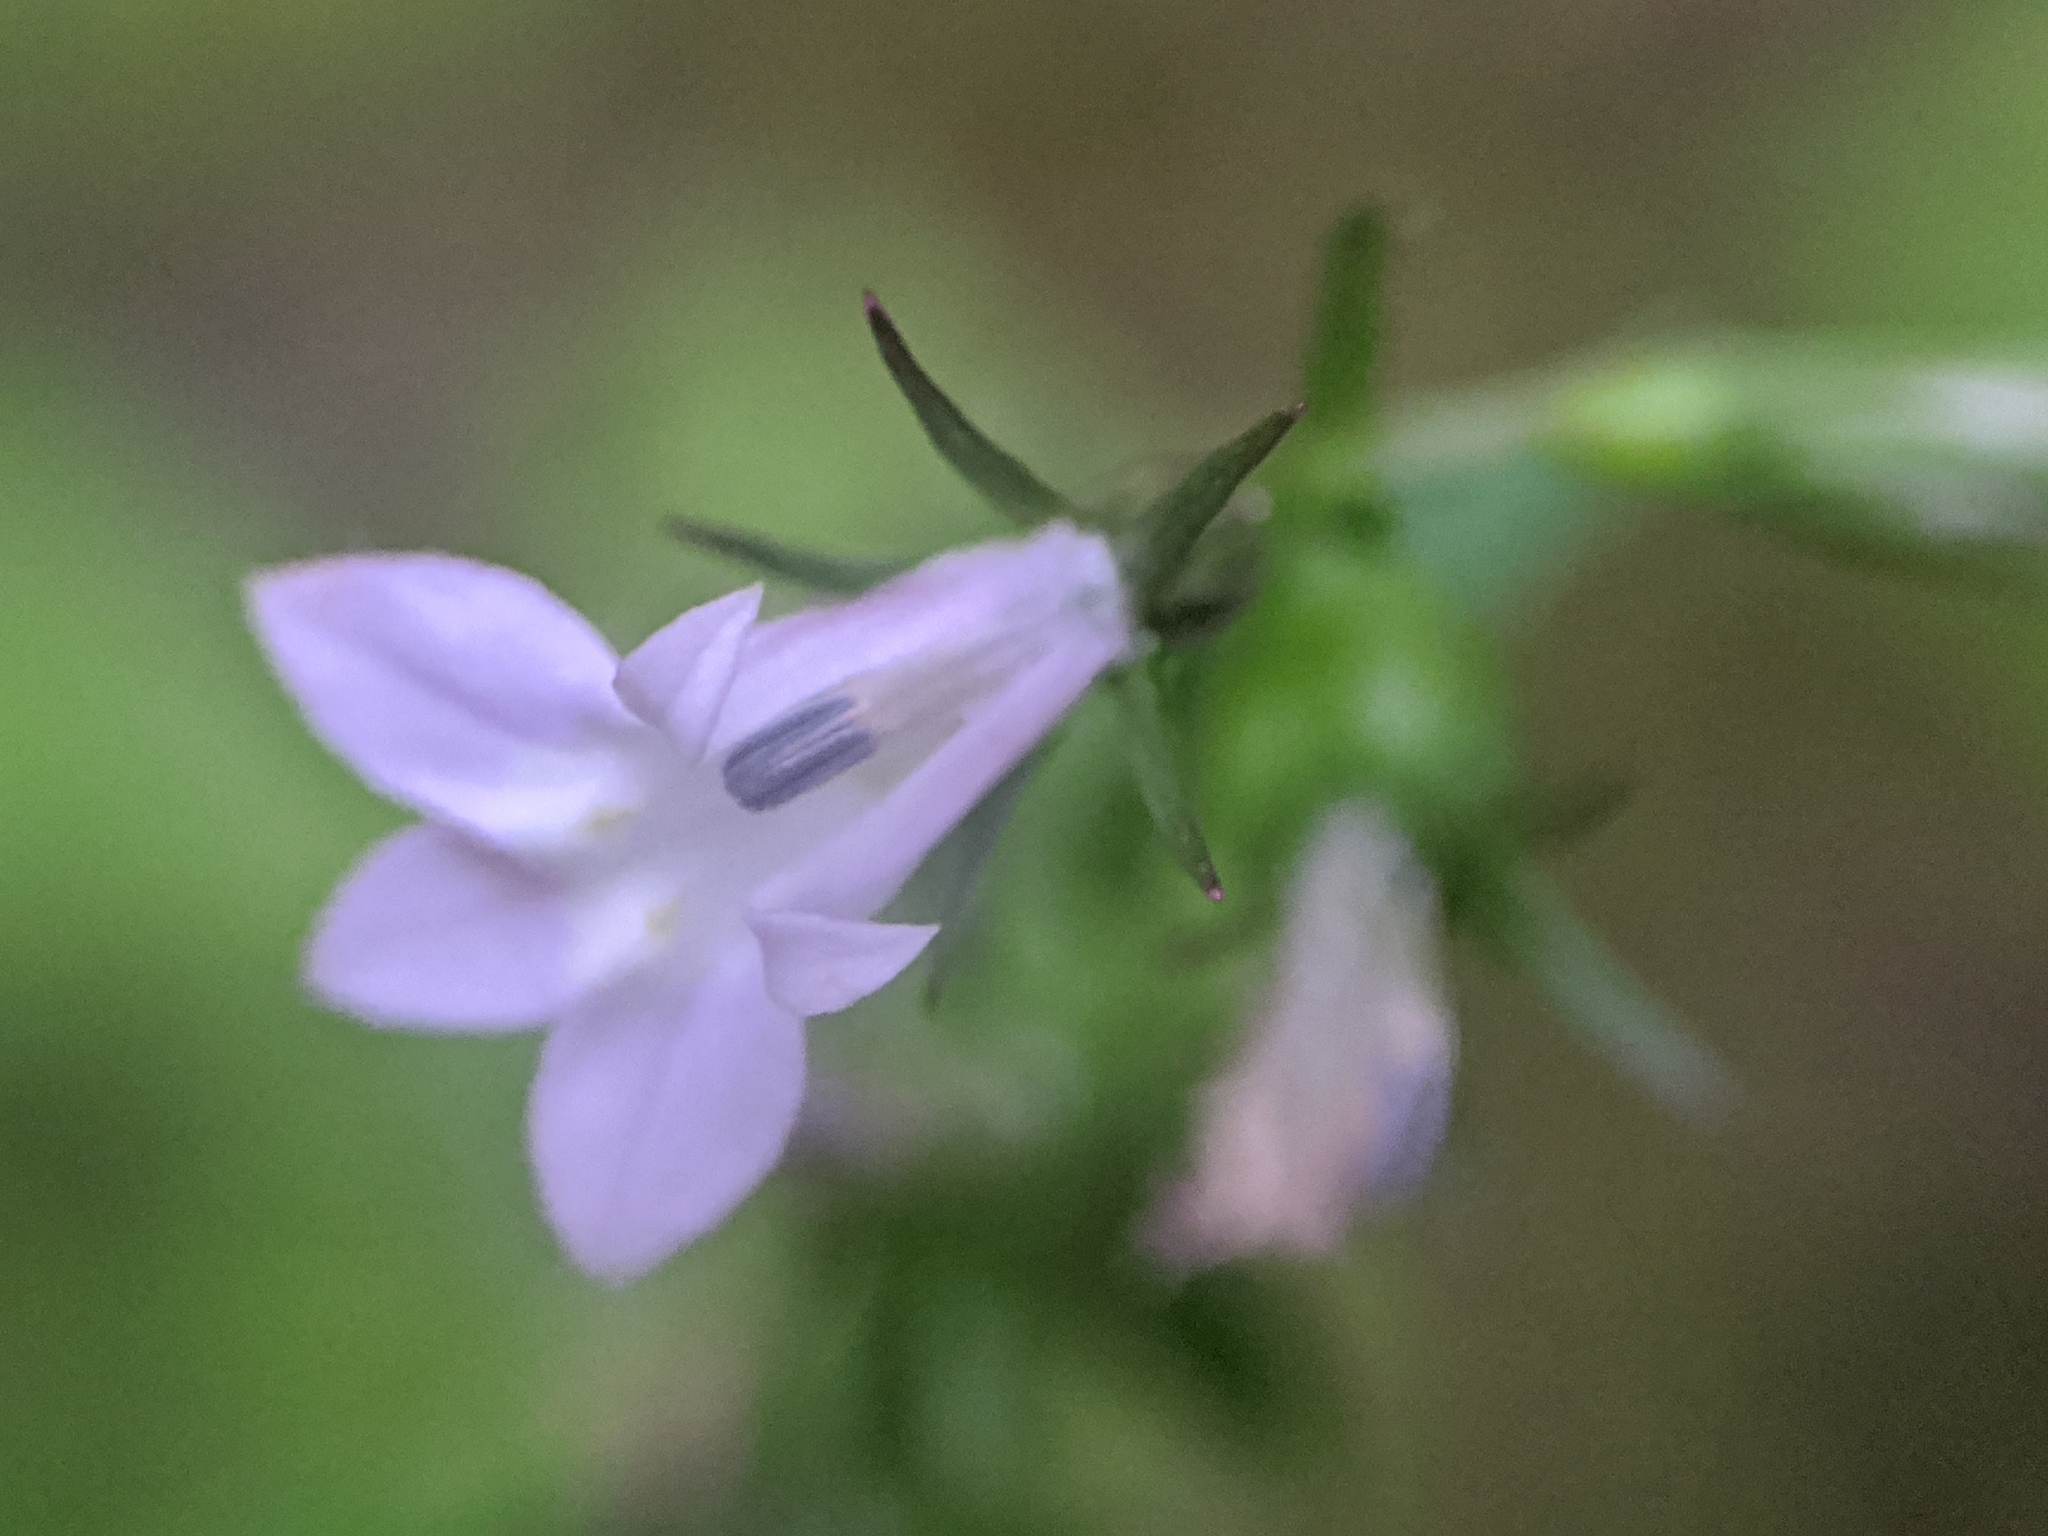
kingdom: Plantae
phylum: Tracheophyta
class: Magnoliopsida
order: Asterales
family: Campanulaceae
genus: Lobelia
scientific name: Lobelia inflata
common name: Indian tobacco
